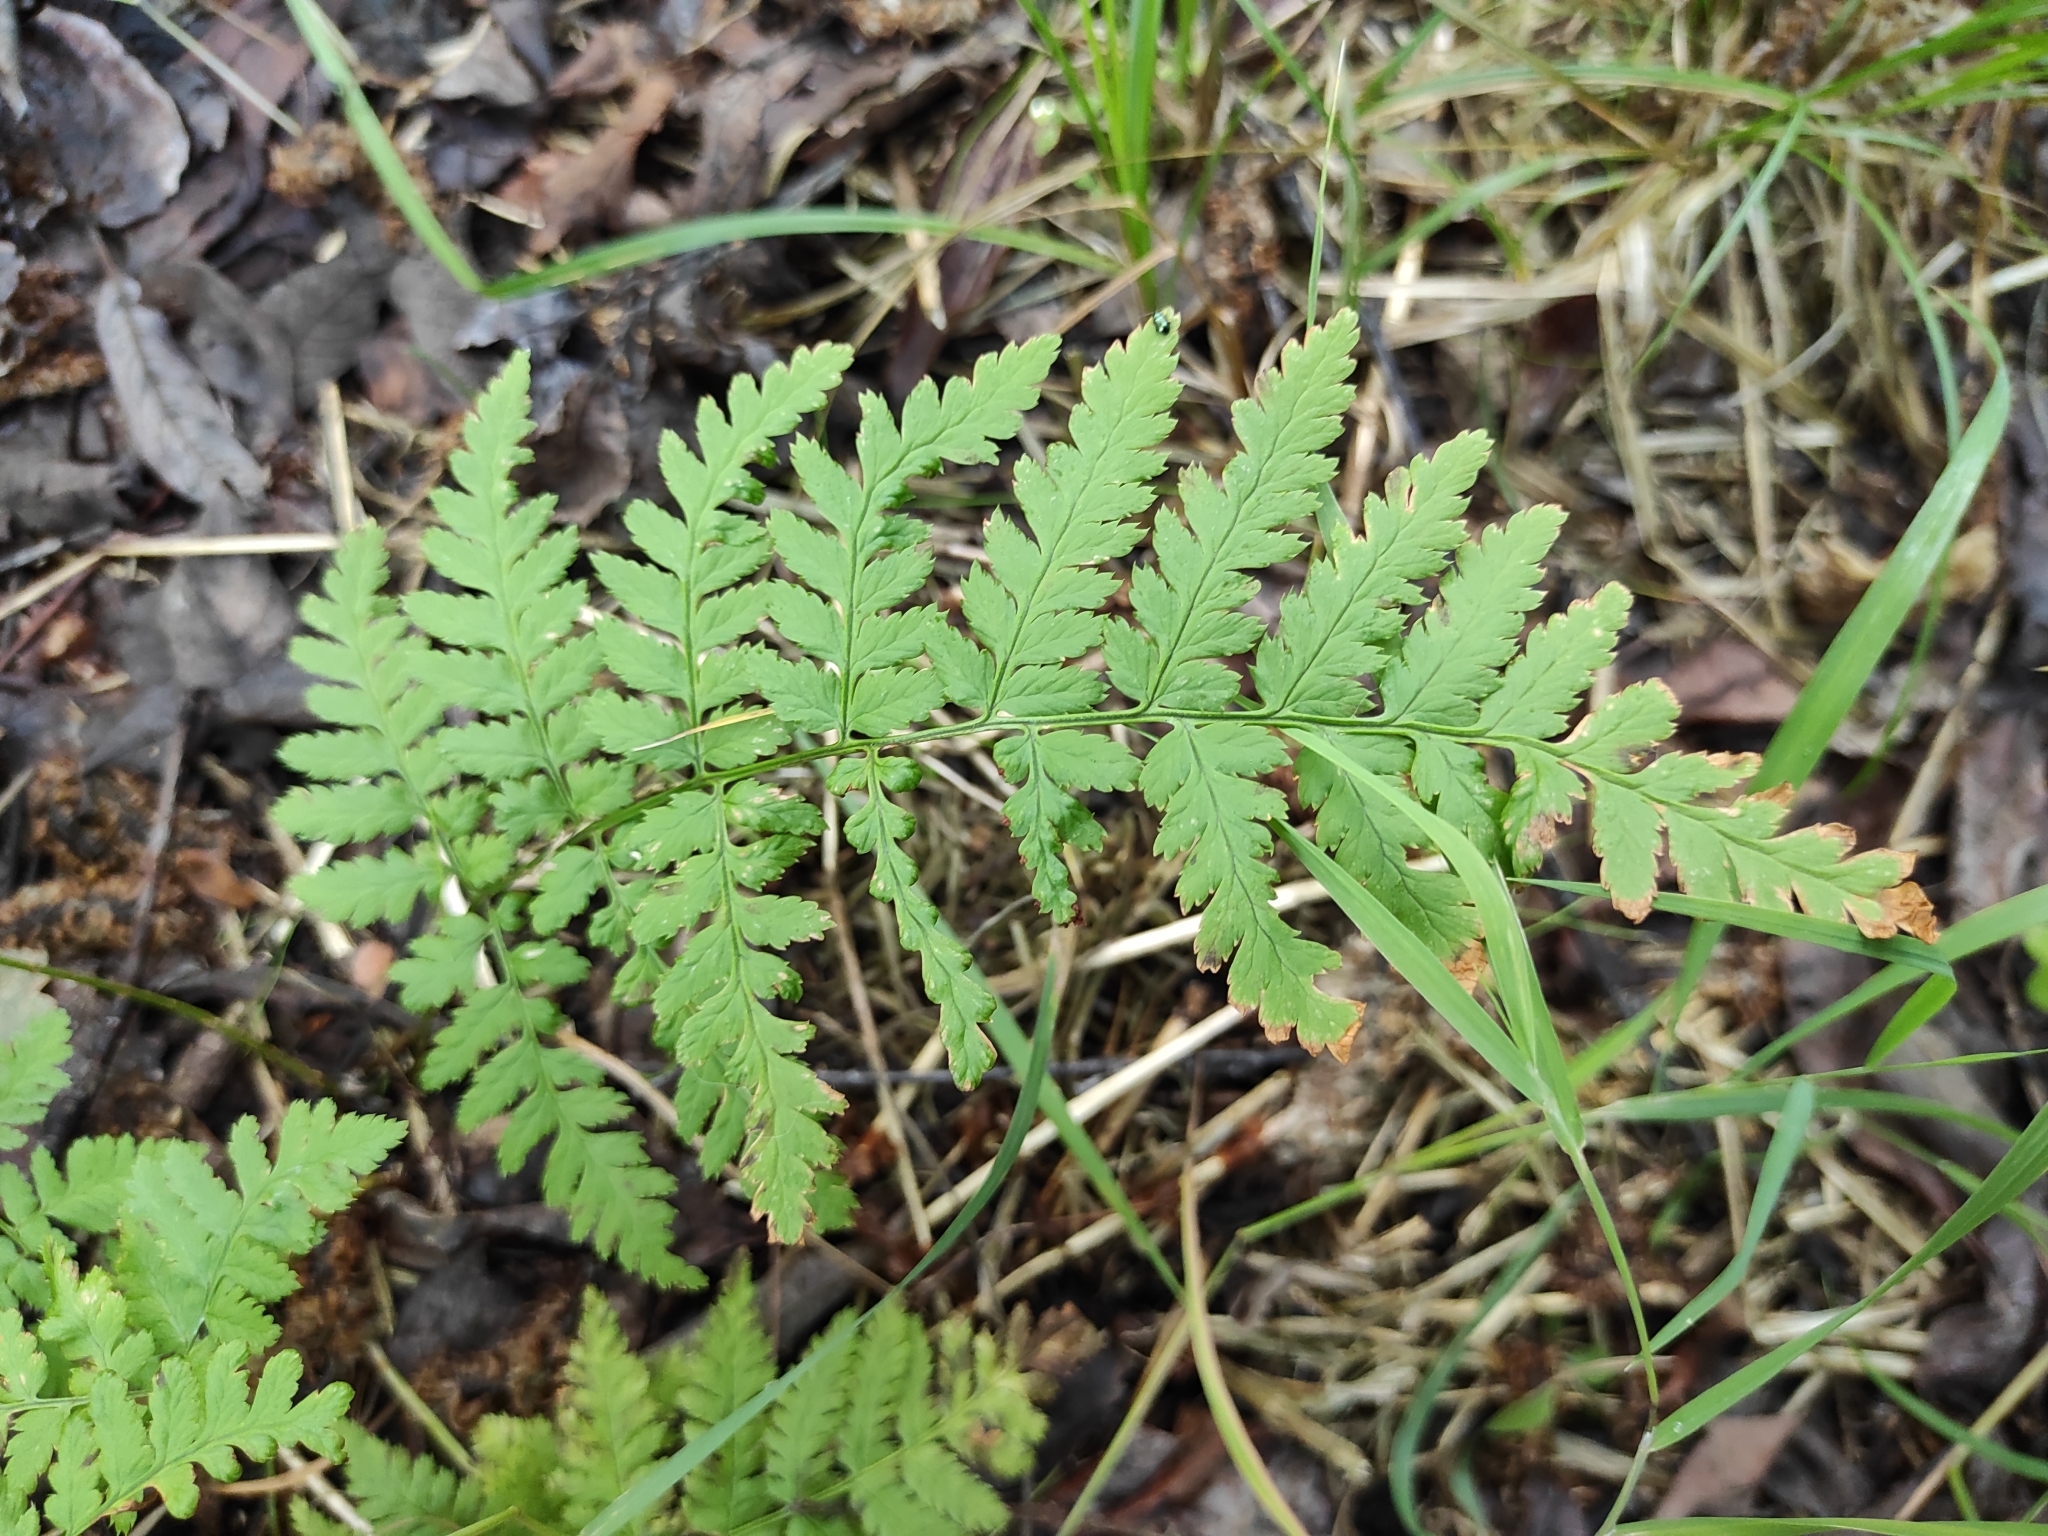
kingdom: Plantae
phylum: Tracheophyta
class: Polypodiopsida
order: Polypodiales
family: Dryopteridaceae
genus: Dryopteris
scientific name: Dryopteris carthusiana
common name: Narrow buckler-fern
